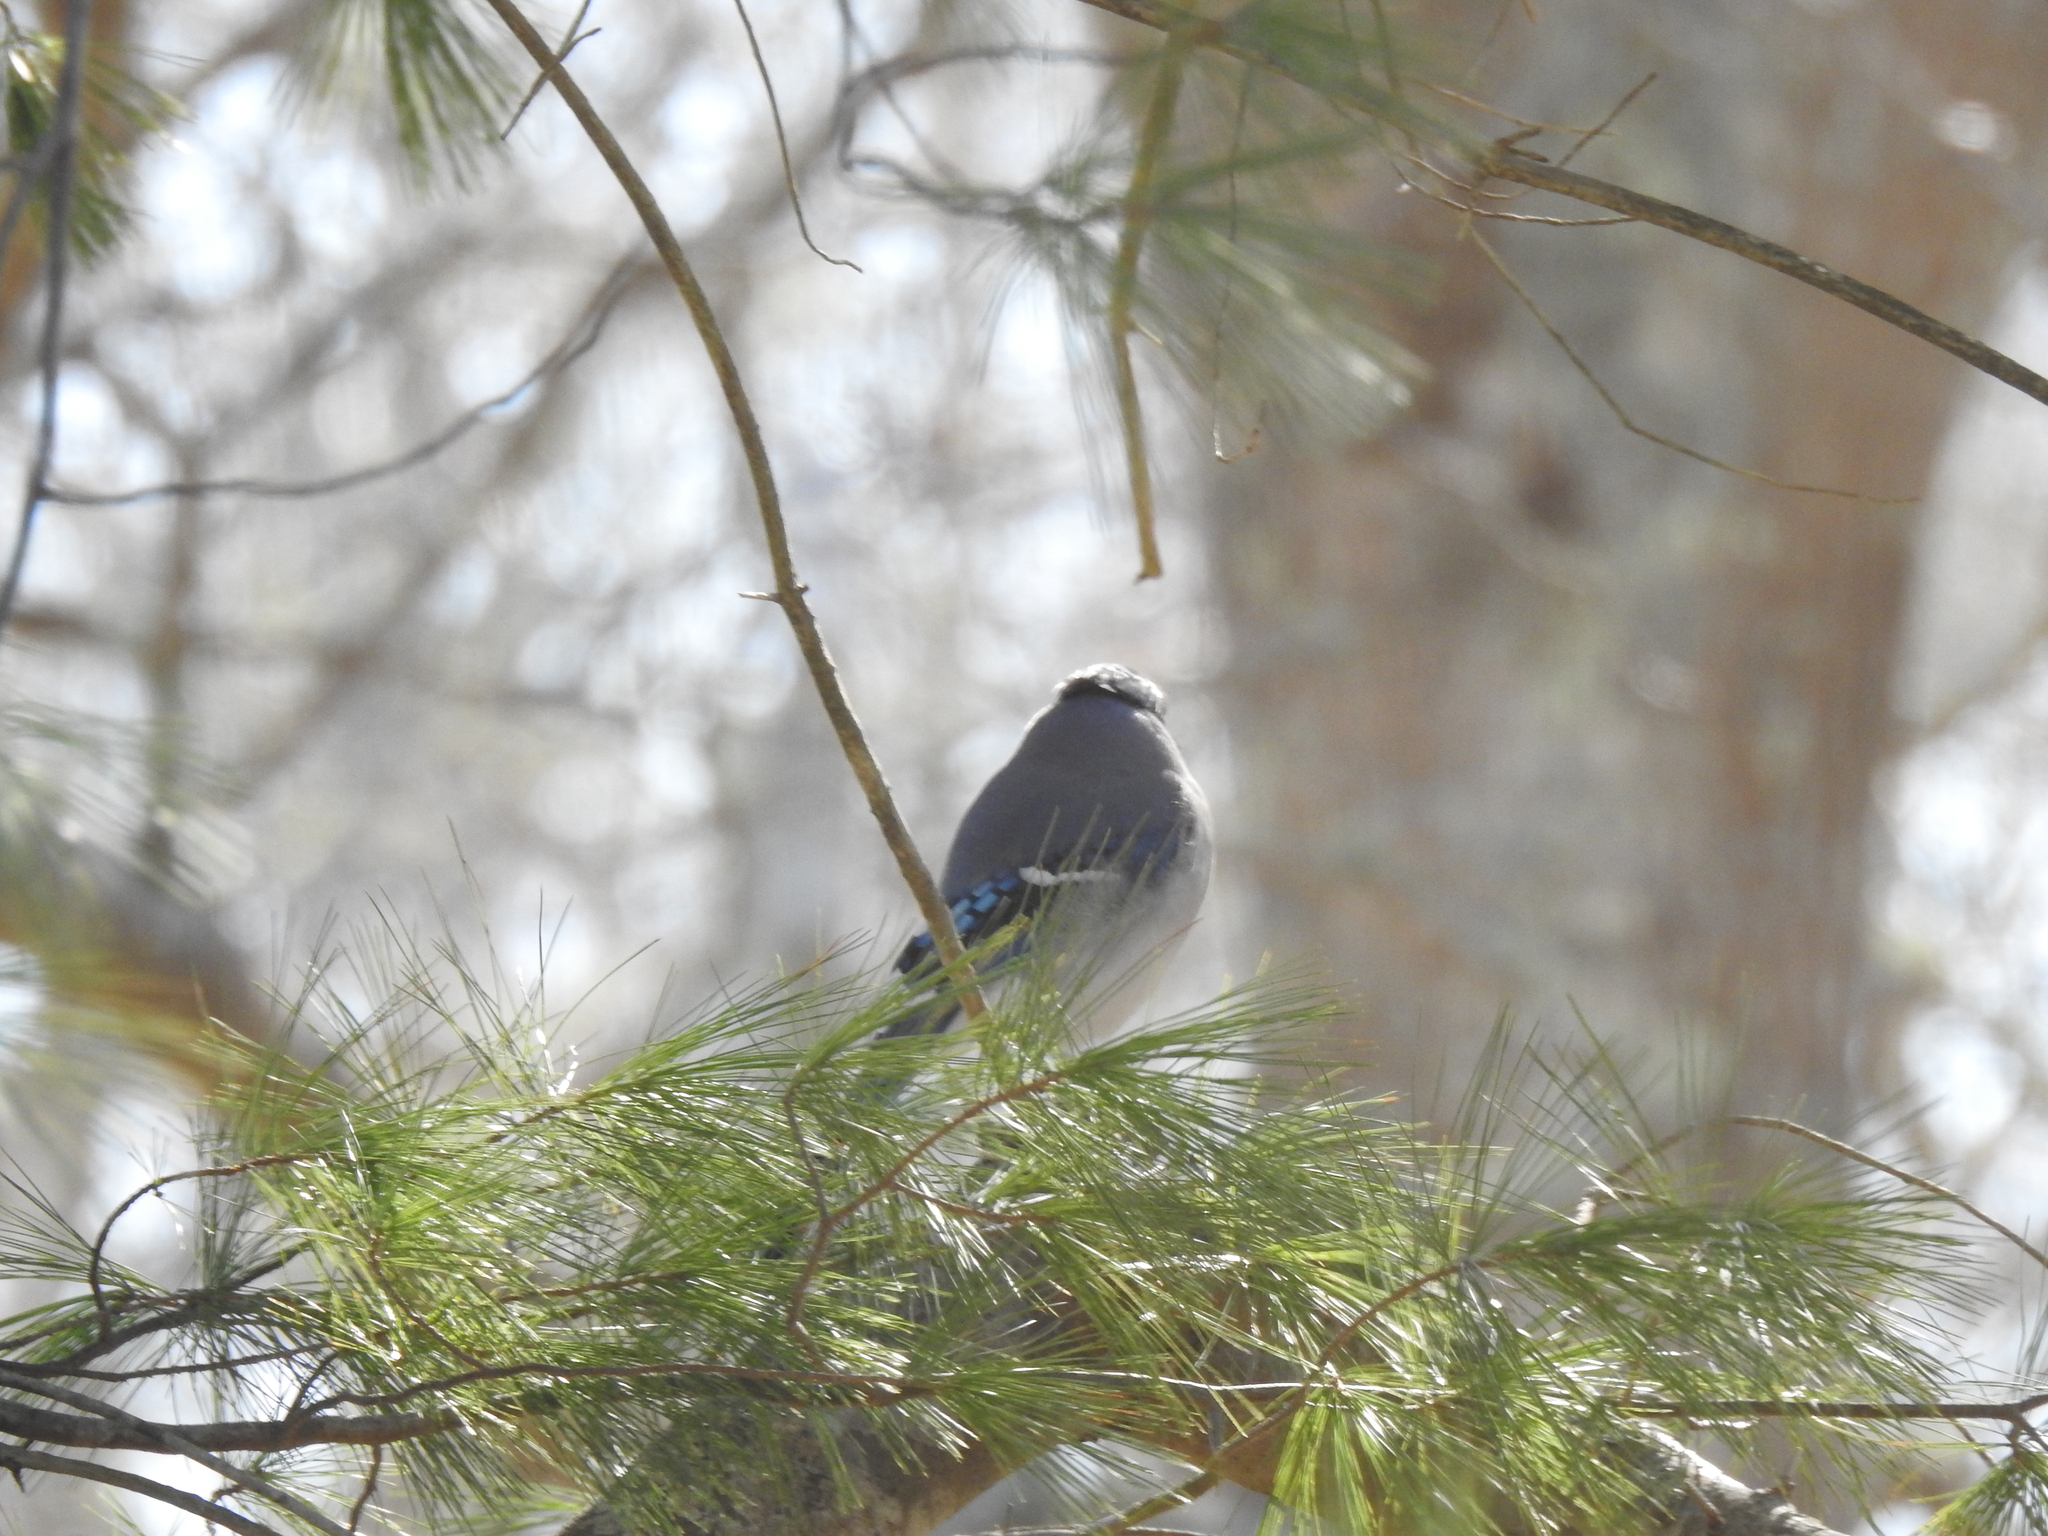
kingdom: Animalia
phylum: Chordata
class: Aves
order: Passeriformes
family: Corvidae
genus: Cyanocitta
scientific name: Cyanocitta cristata
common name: Blue jay
